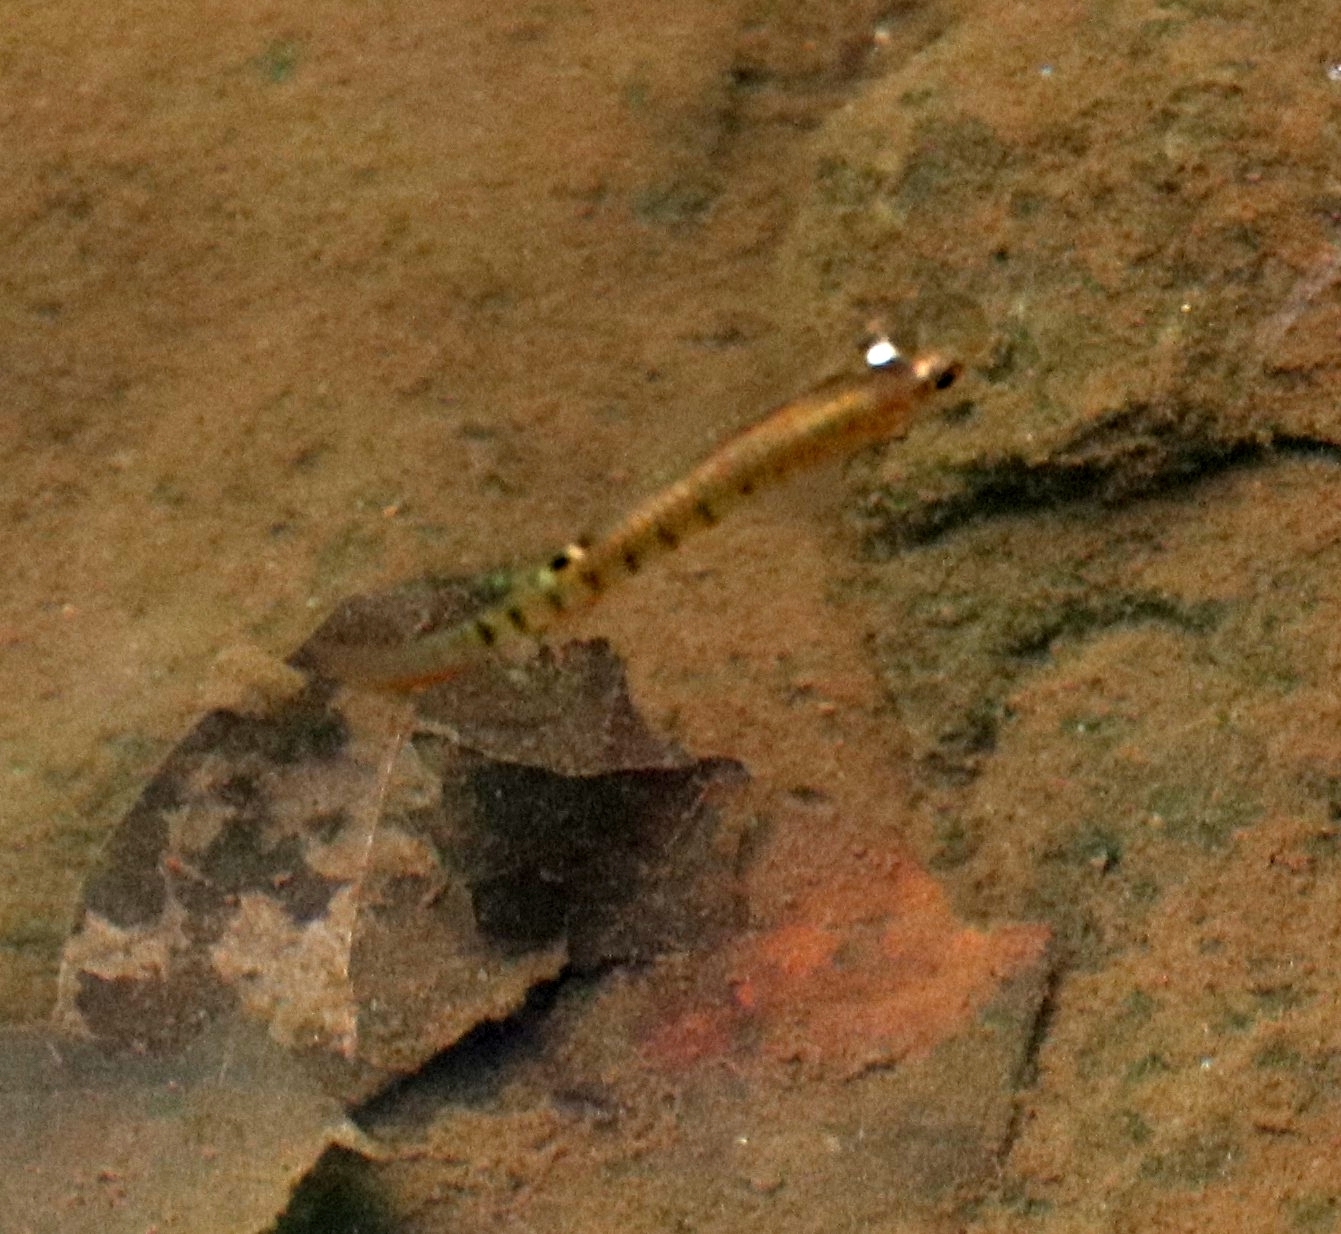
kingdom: Animalia
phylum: Chordata
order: Cyprinodontiformes
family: Aplocheilidae
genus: Aplocheilus
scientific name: Aplocheilus lineatus
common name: Striped panchax
